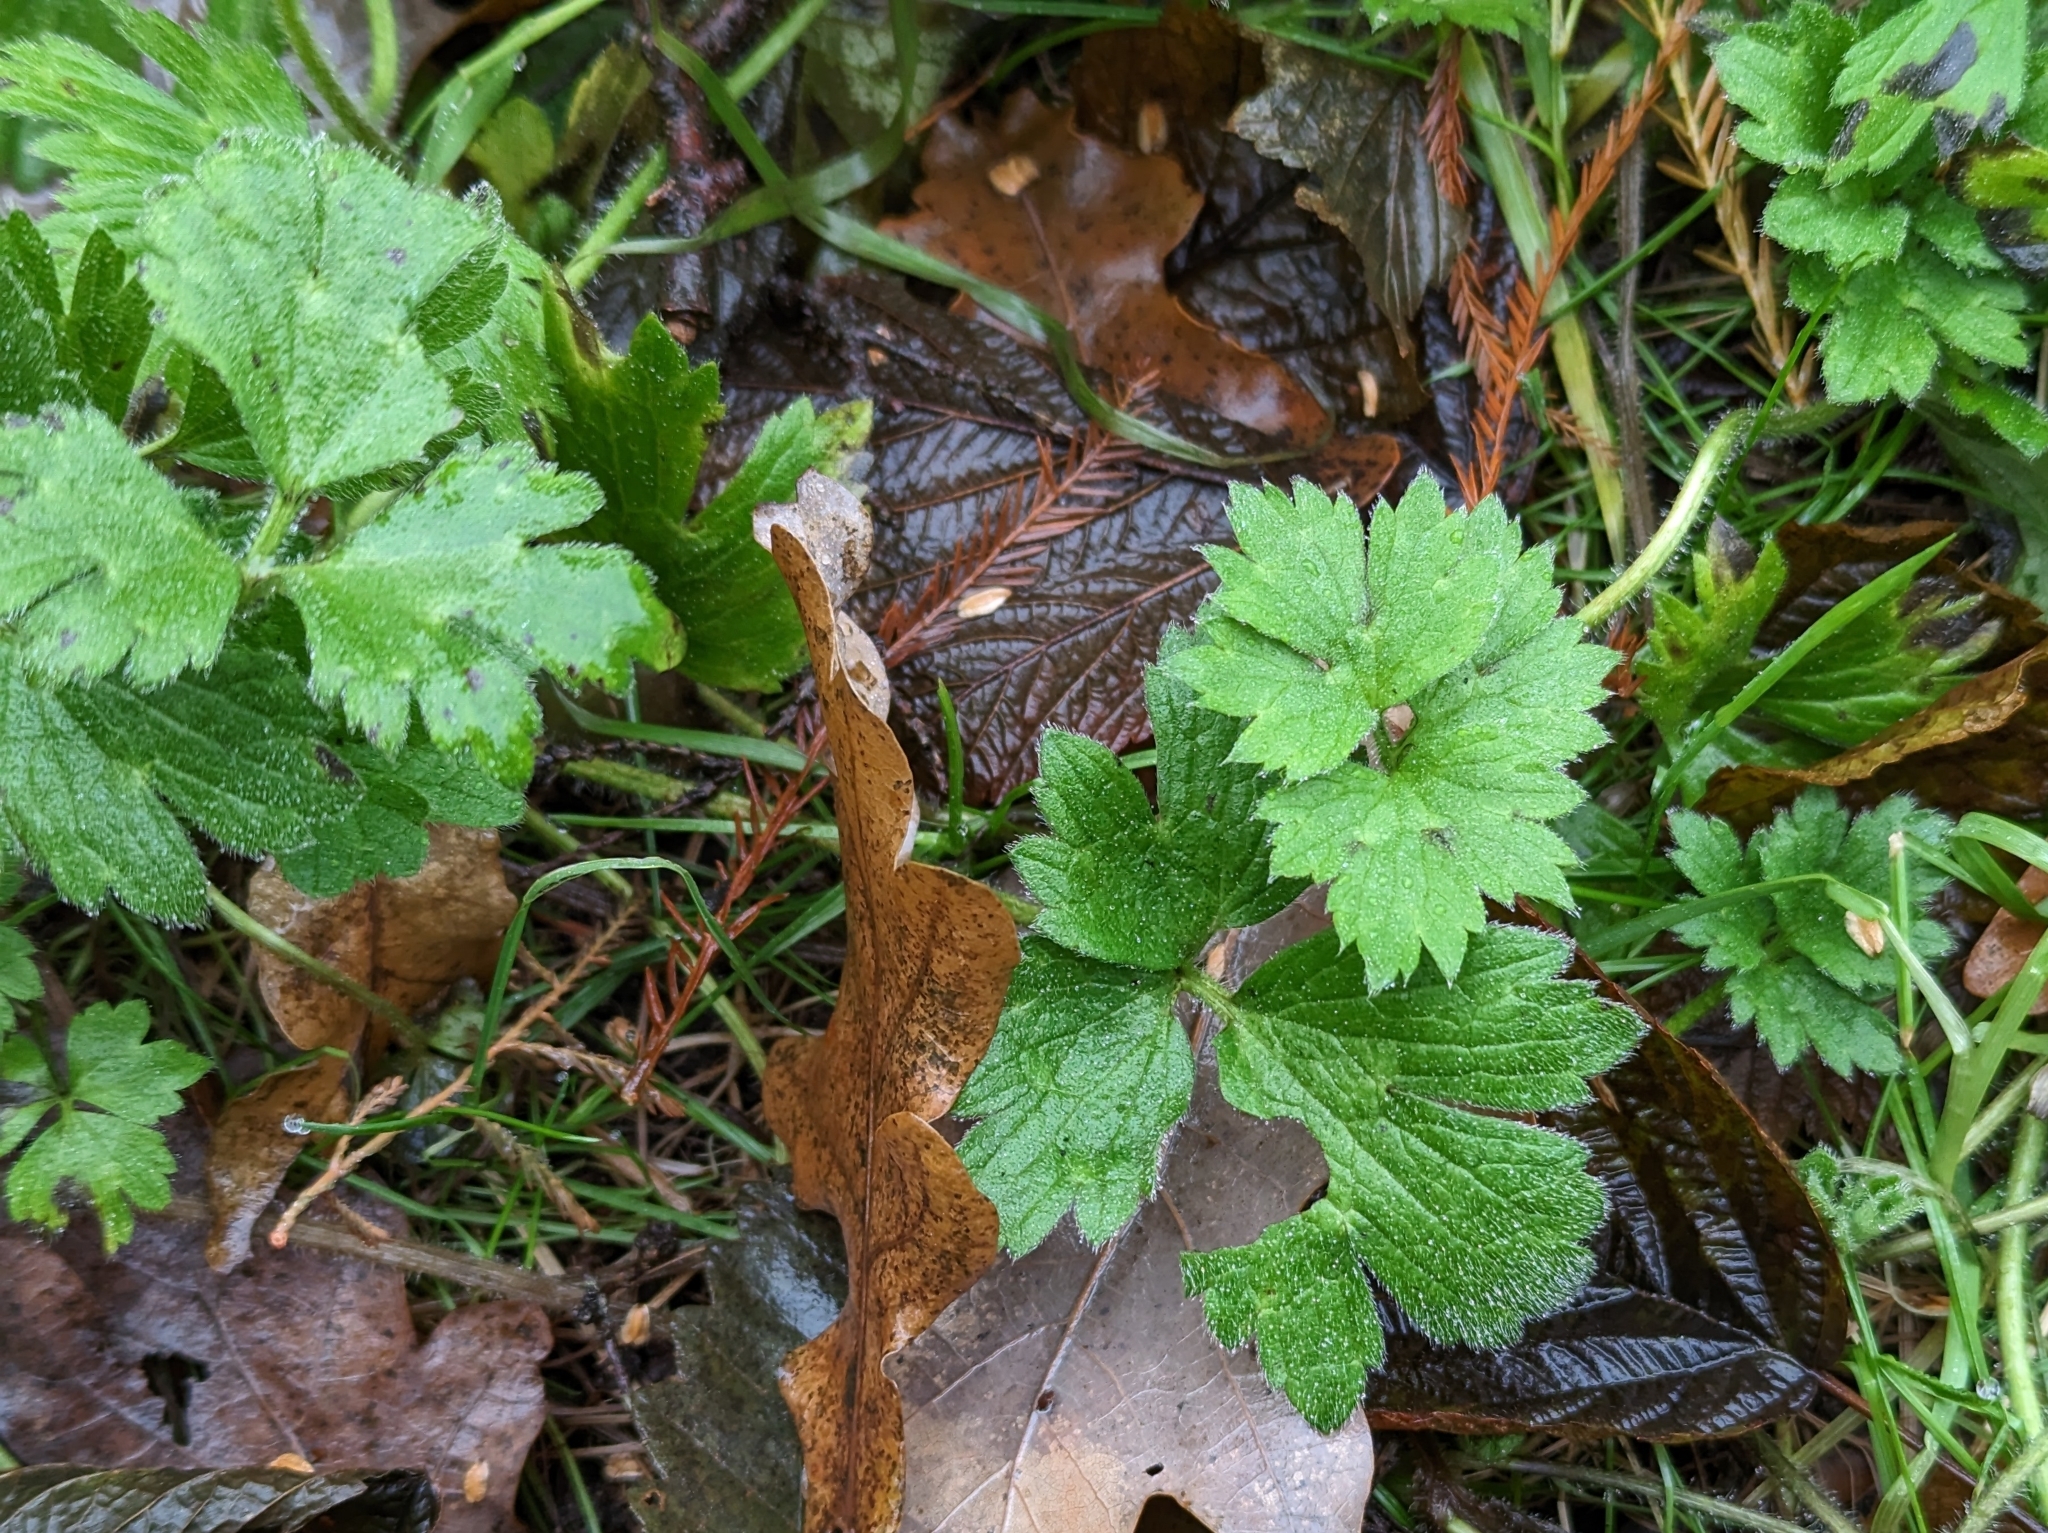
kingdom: Plantae
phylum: Tracheophyta
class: Magnoliopsida
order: Ranunculales
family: Ranunculaceae
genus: Ranunculus
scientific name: Ranunculus repens
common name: Creeping buttercup
